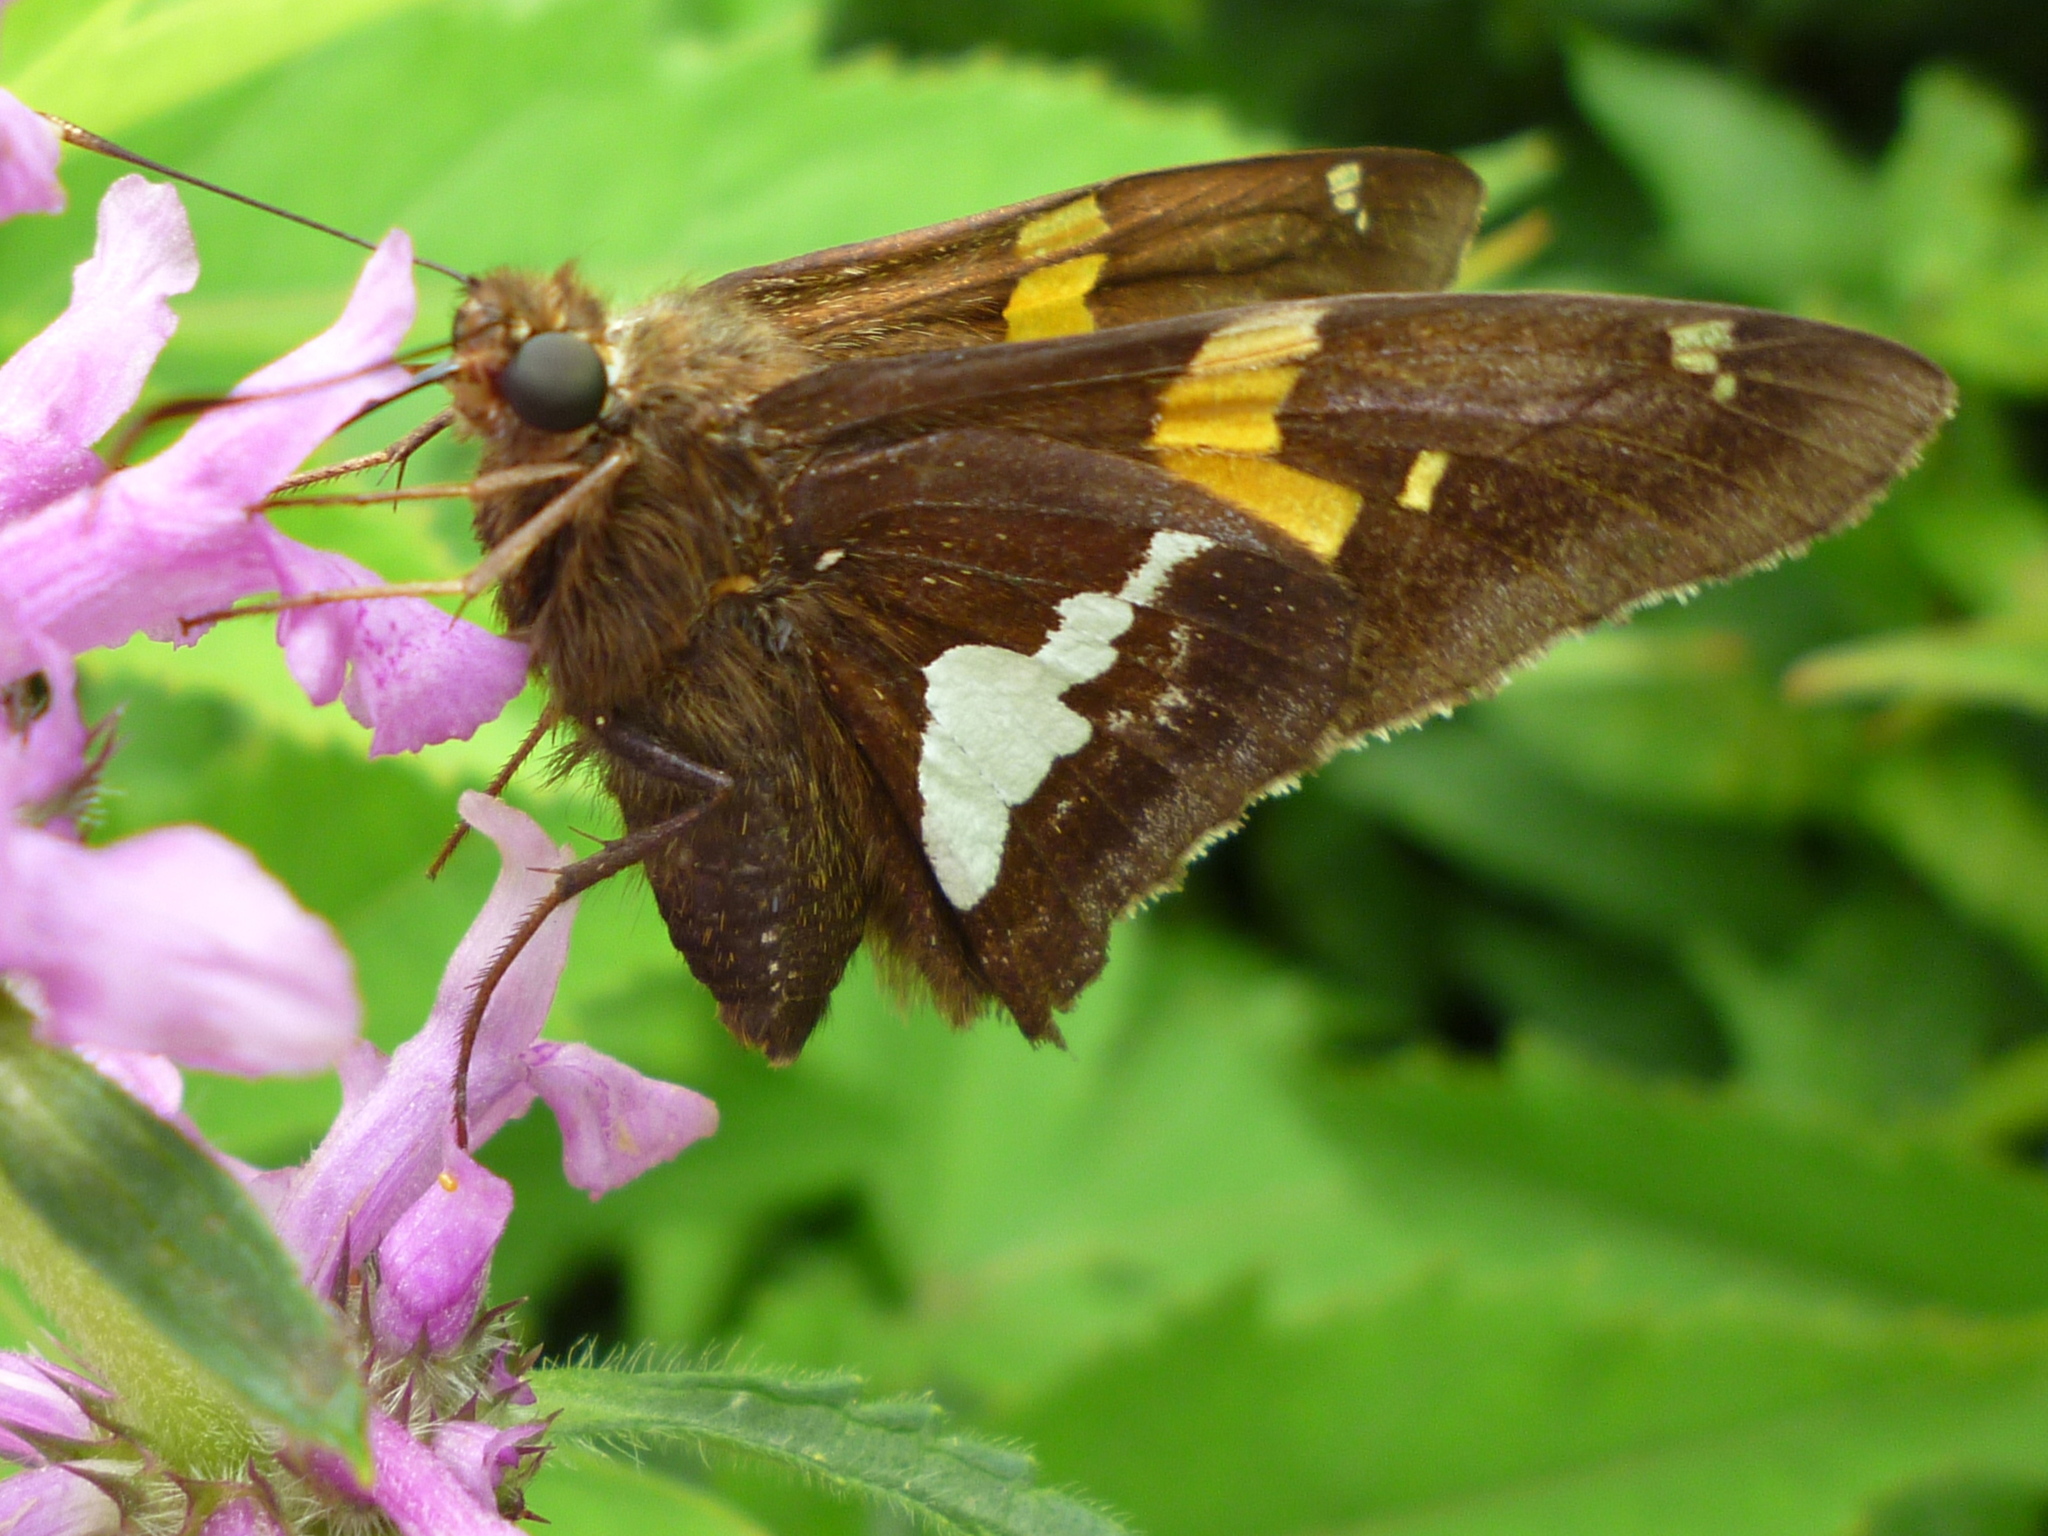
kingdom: Animalia
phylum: Arthropoda
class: Insecta
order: Lepidoptera
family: Hesperiidae
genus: Epargyreus
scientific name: Epargyreus clarus
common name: Silver-spotted skipper
